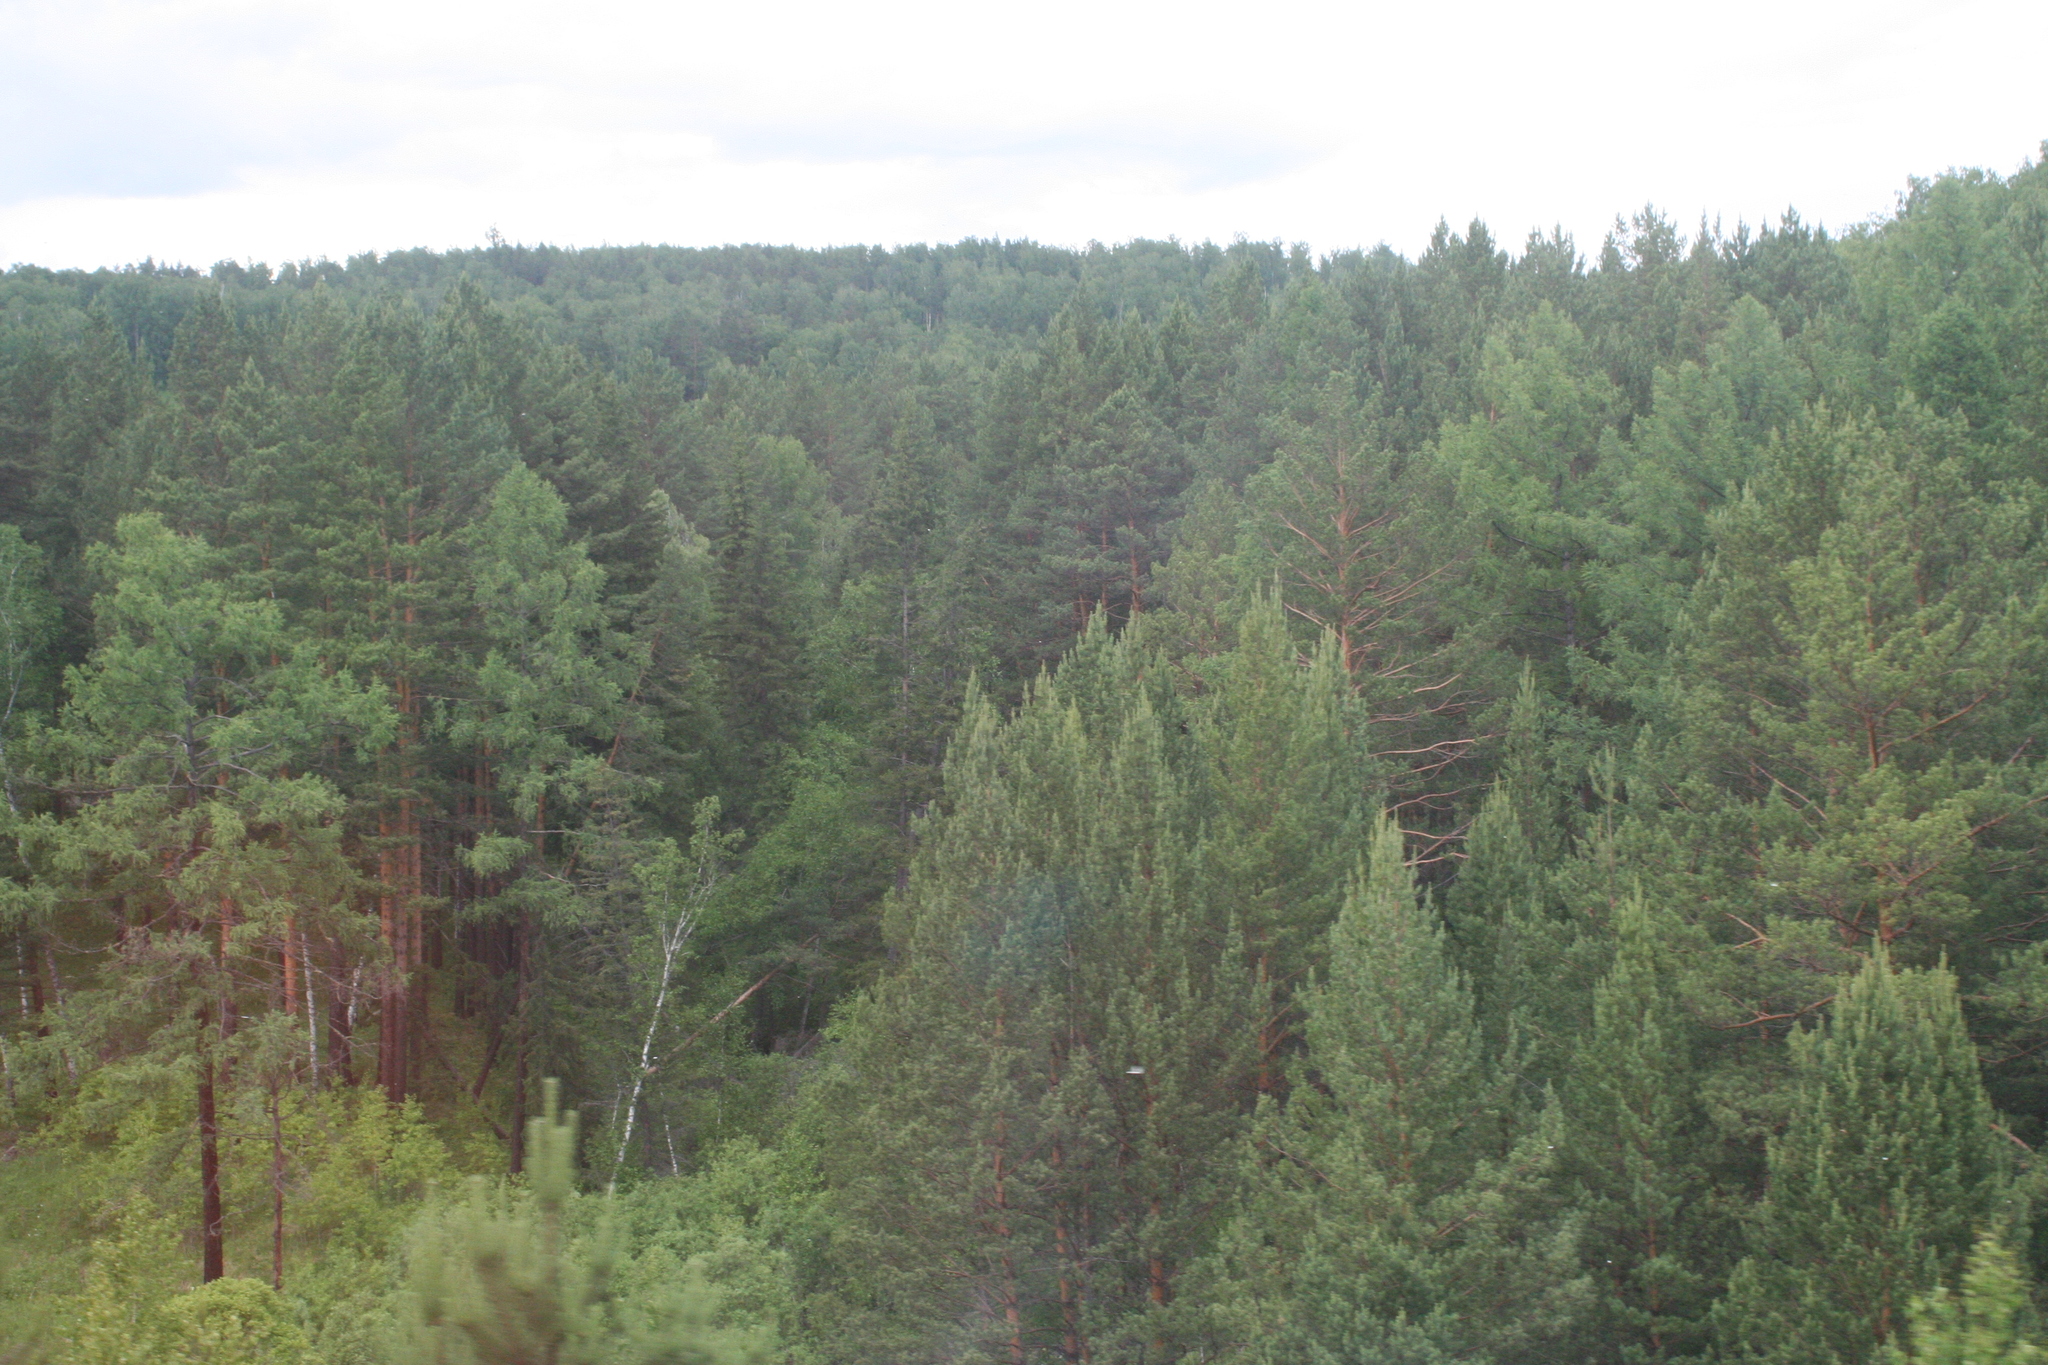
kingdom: Plantae
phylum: Tracheophyta
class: Pinopsida
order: Pinales
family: Pinaceae
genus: Pinus
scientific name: Pinus sylvestris
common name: Scots pine
